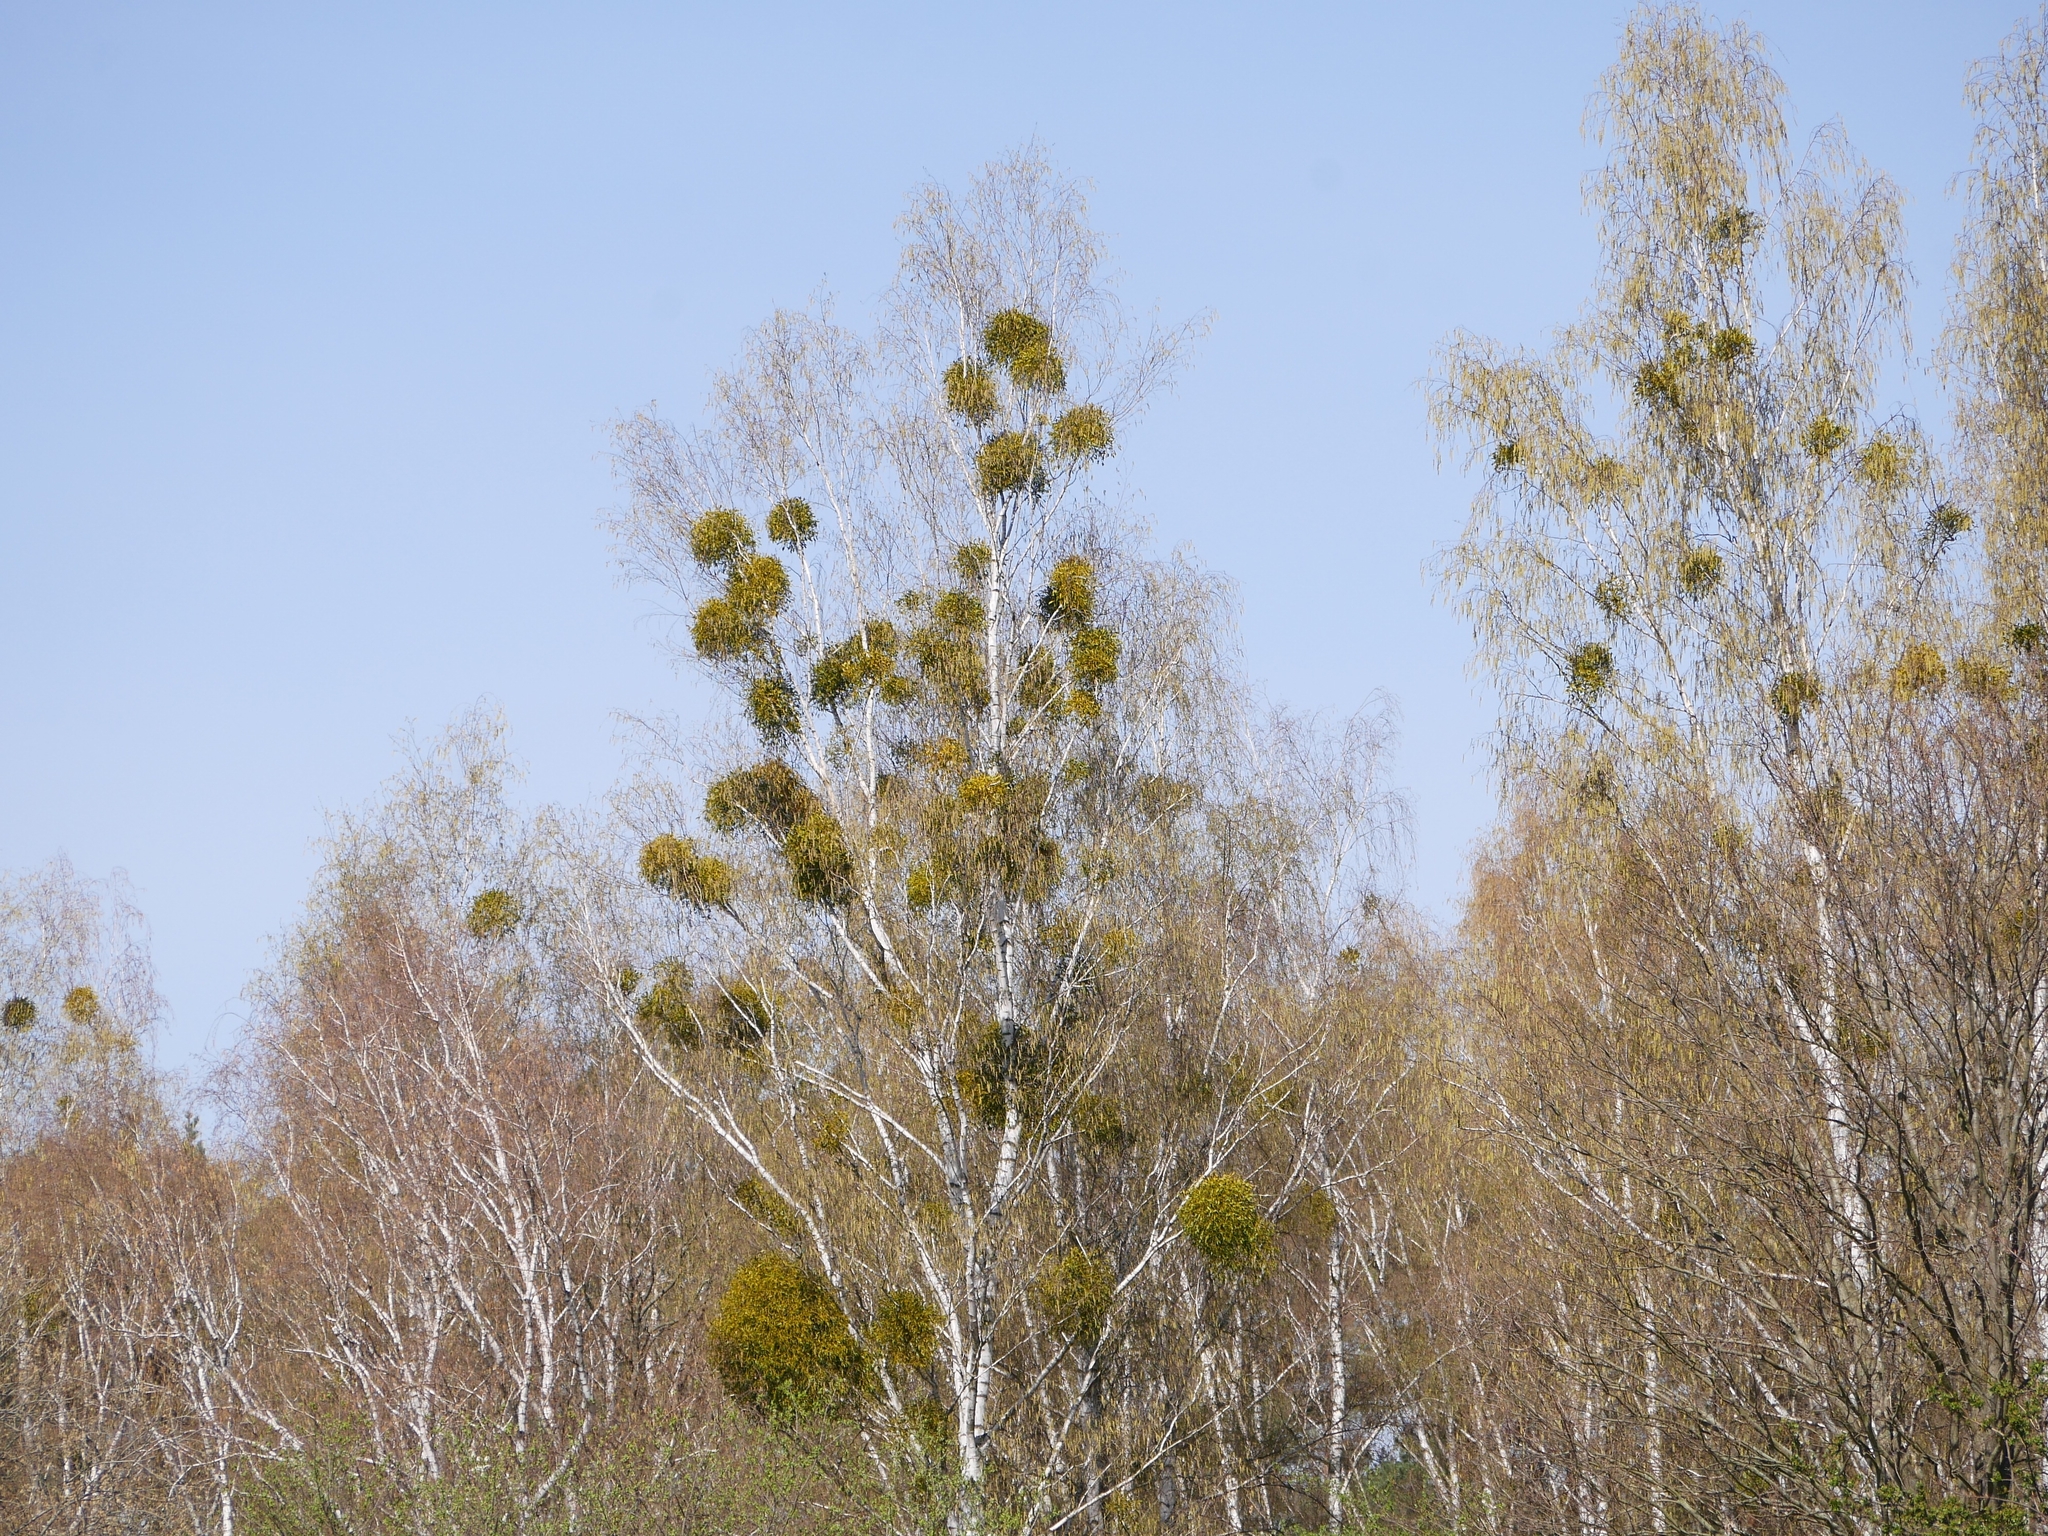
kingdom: Plantae
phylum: Tracheophyta
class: Magnoliopsida
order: Santalales
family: Viscaceae
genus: Viscum
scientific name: Viscum album
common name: Mistletoe
